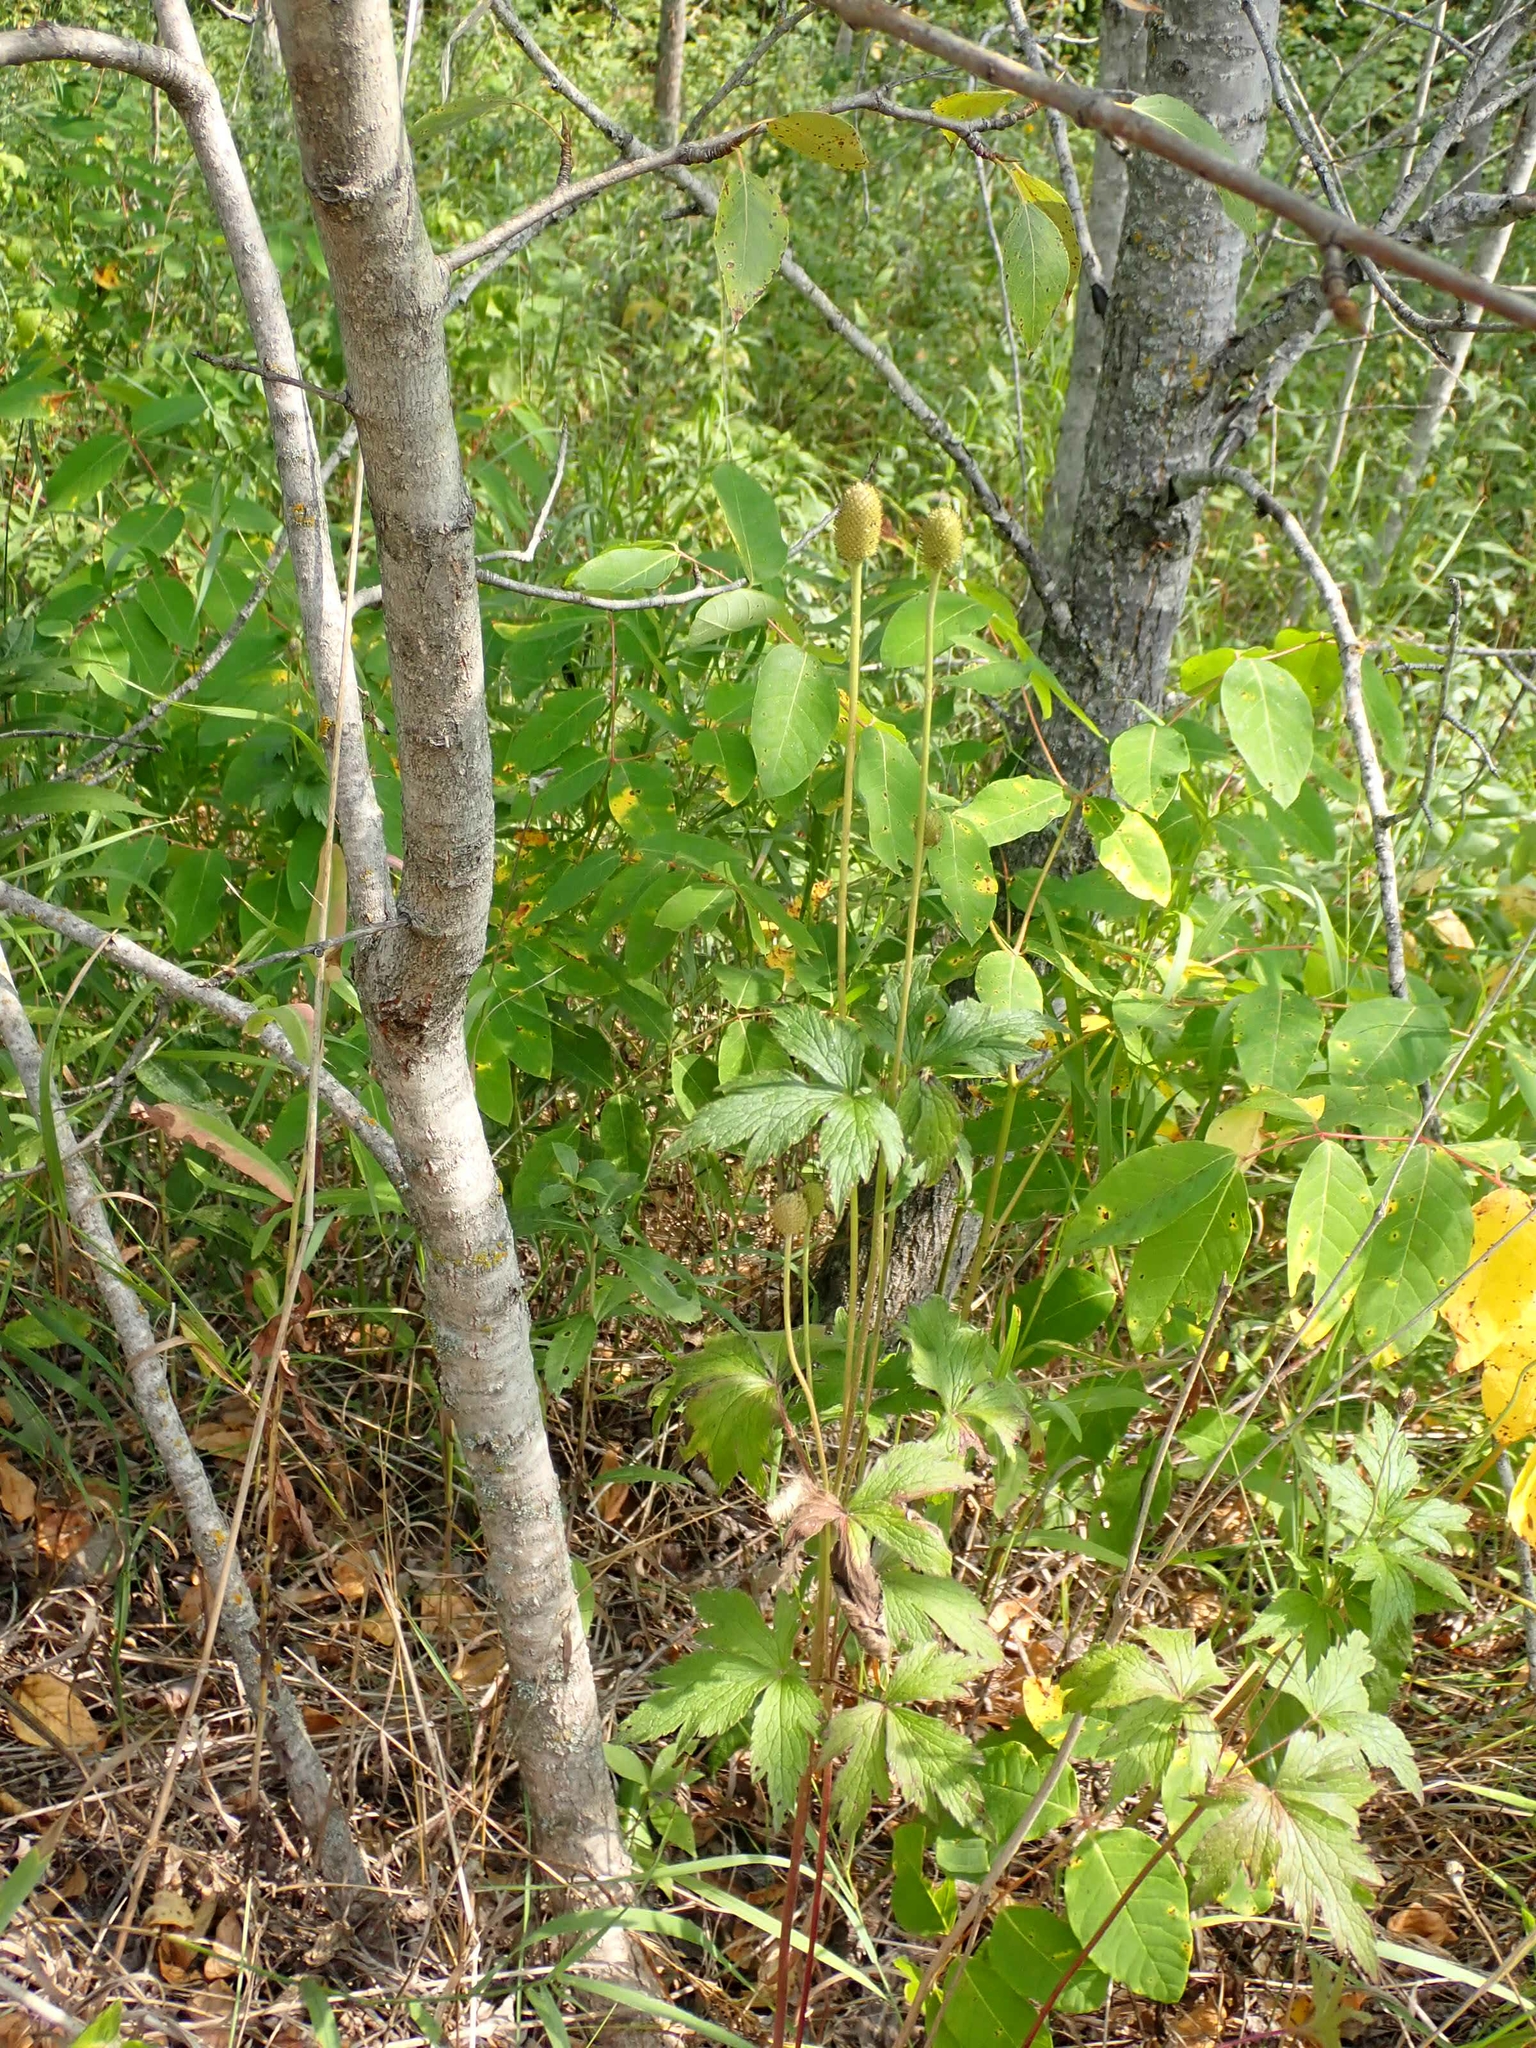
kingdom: Plantae
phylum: Tracheophyta
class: Magnoliopsida
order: Ranunculales
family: Ranunculaceae
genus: Anemone
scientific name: Anemone virginiana
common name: Tall anemone
